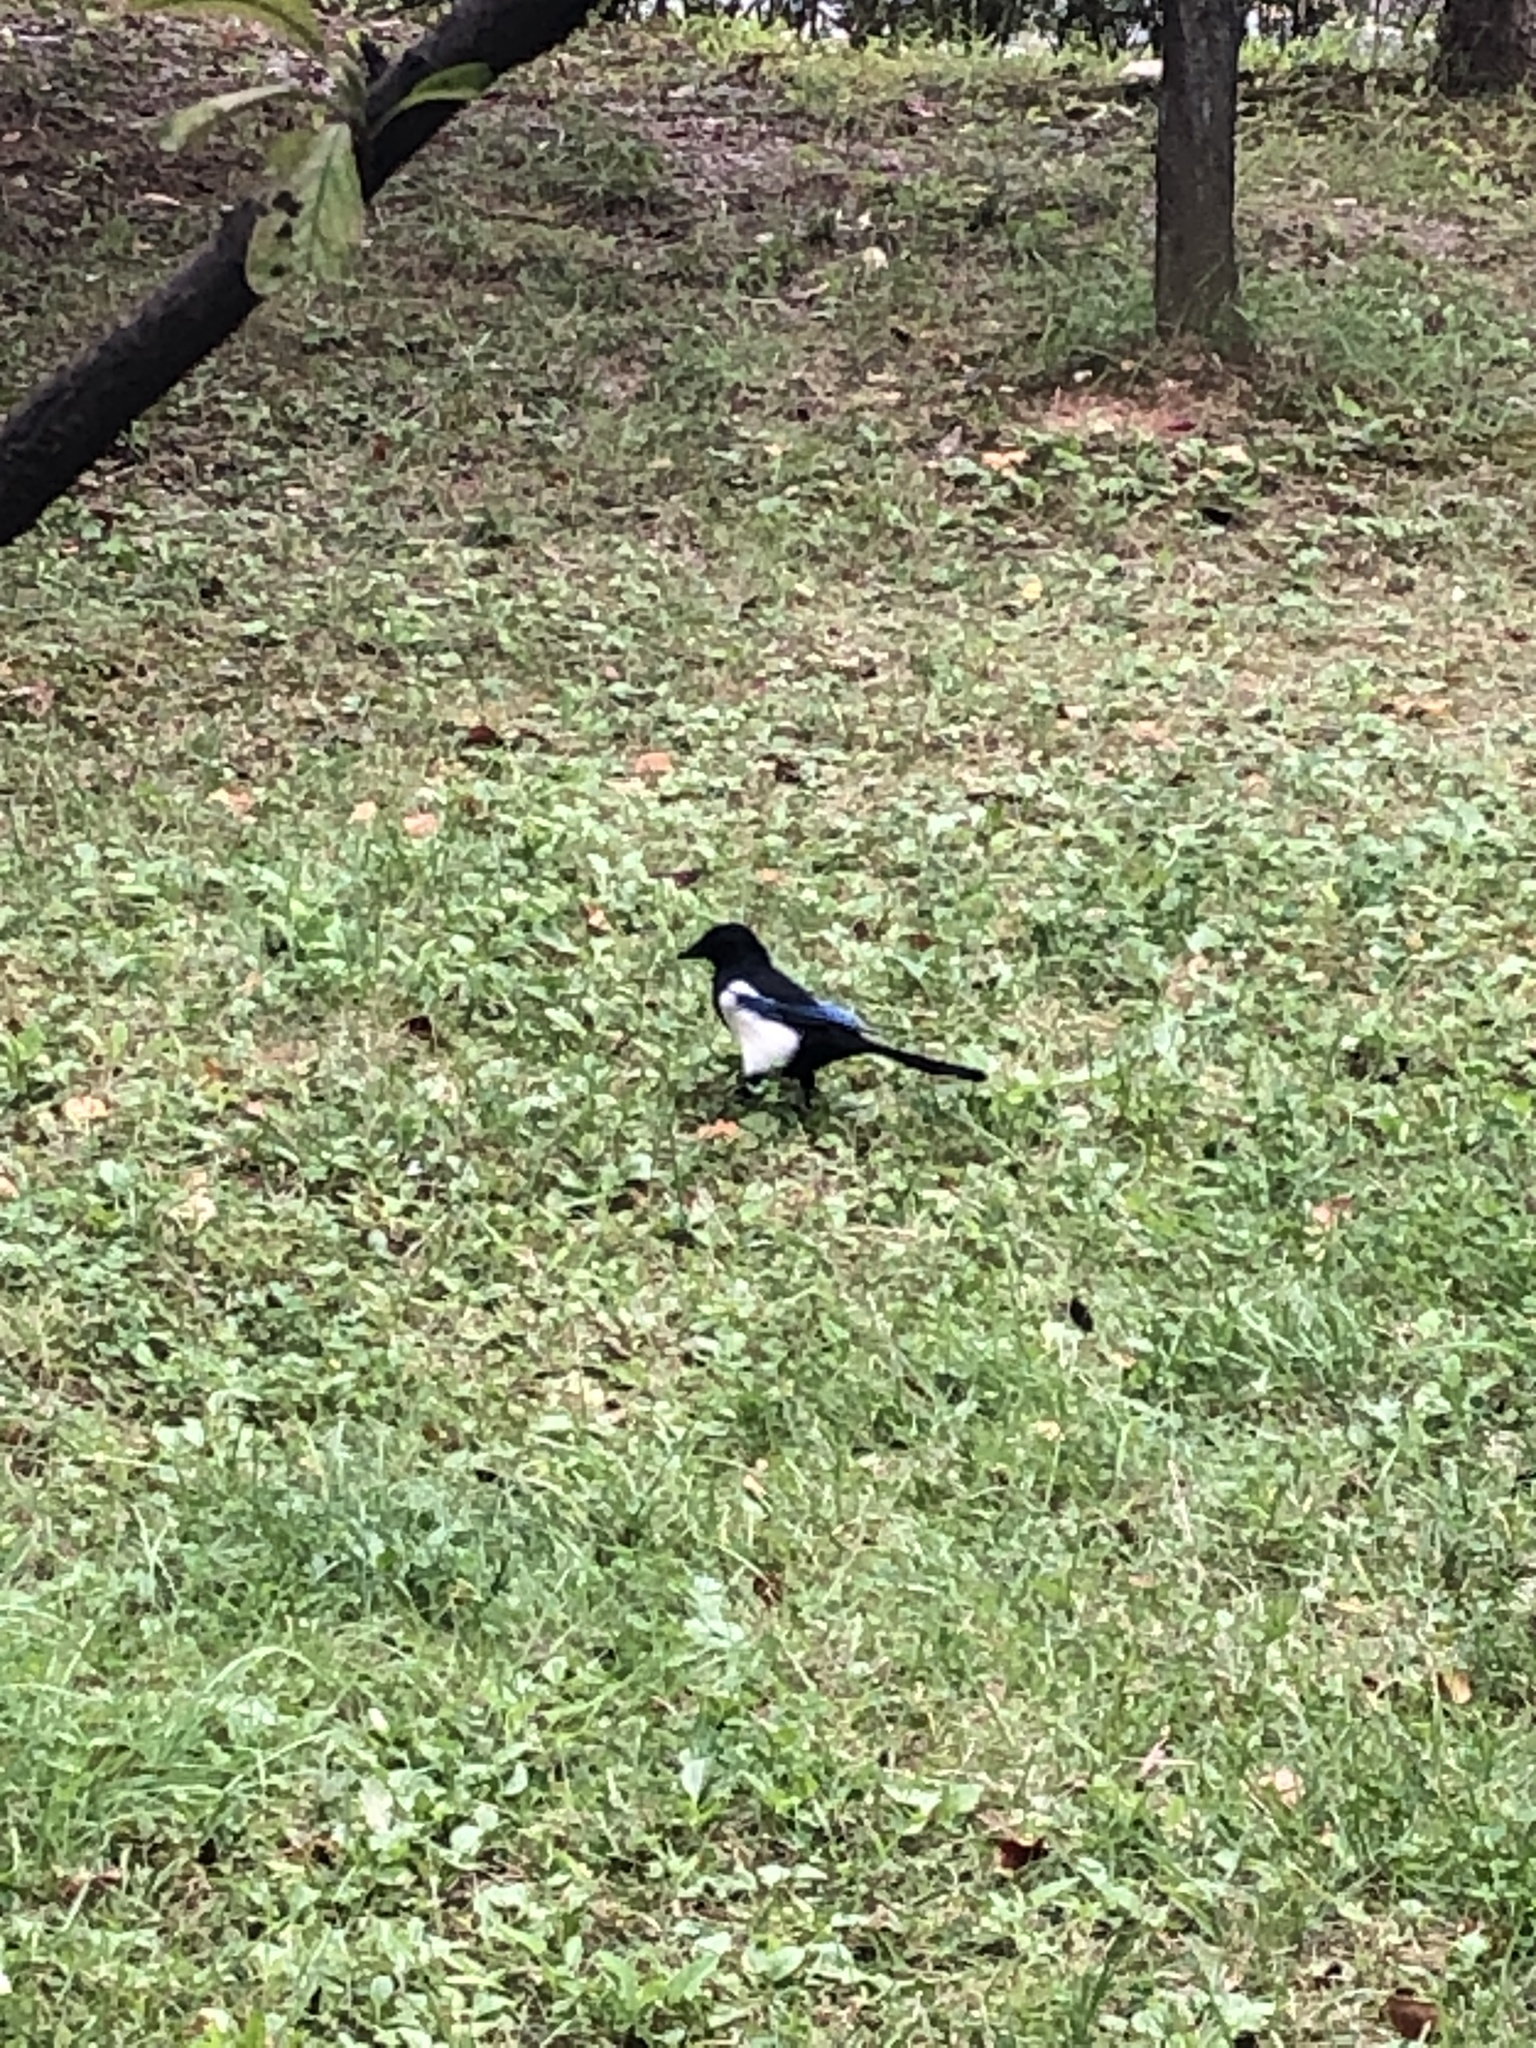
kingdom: Animalia
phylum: Chordata
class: Aves
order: Passeriformes
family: Corvidae
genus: Pica
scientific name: Pica serica
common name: Oriental magpie
